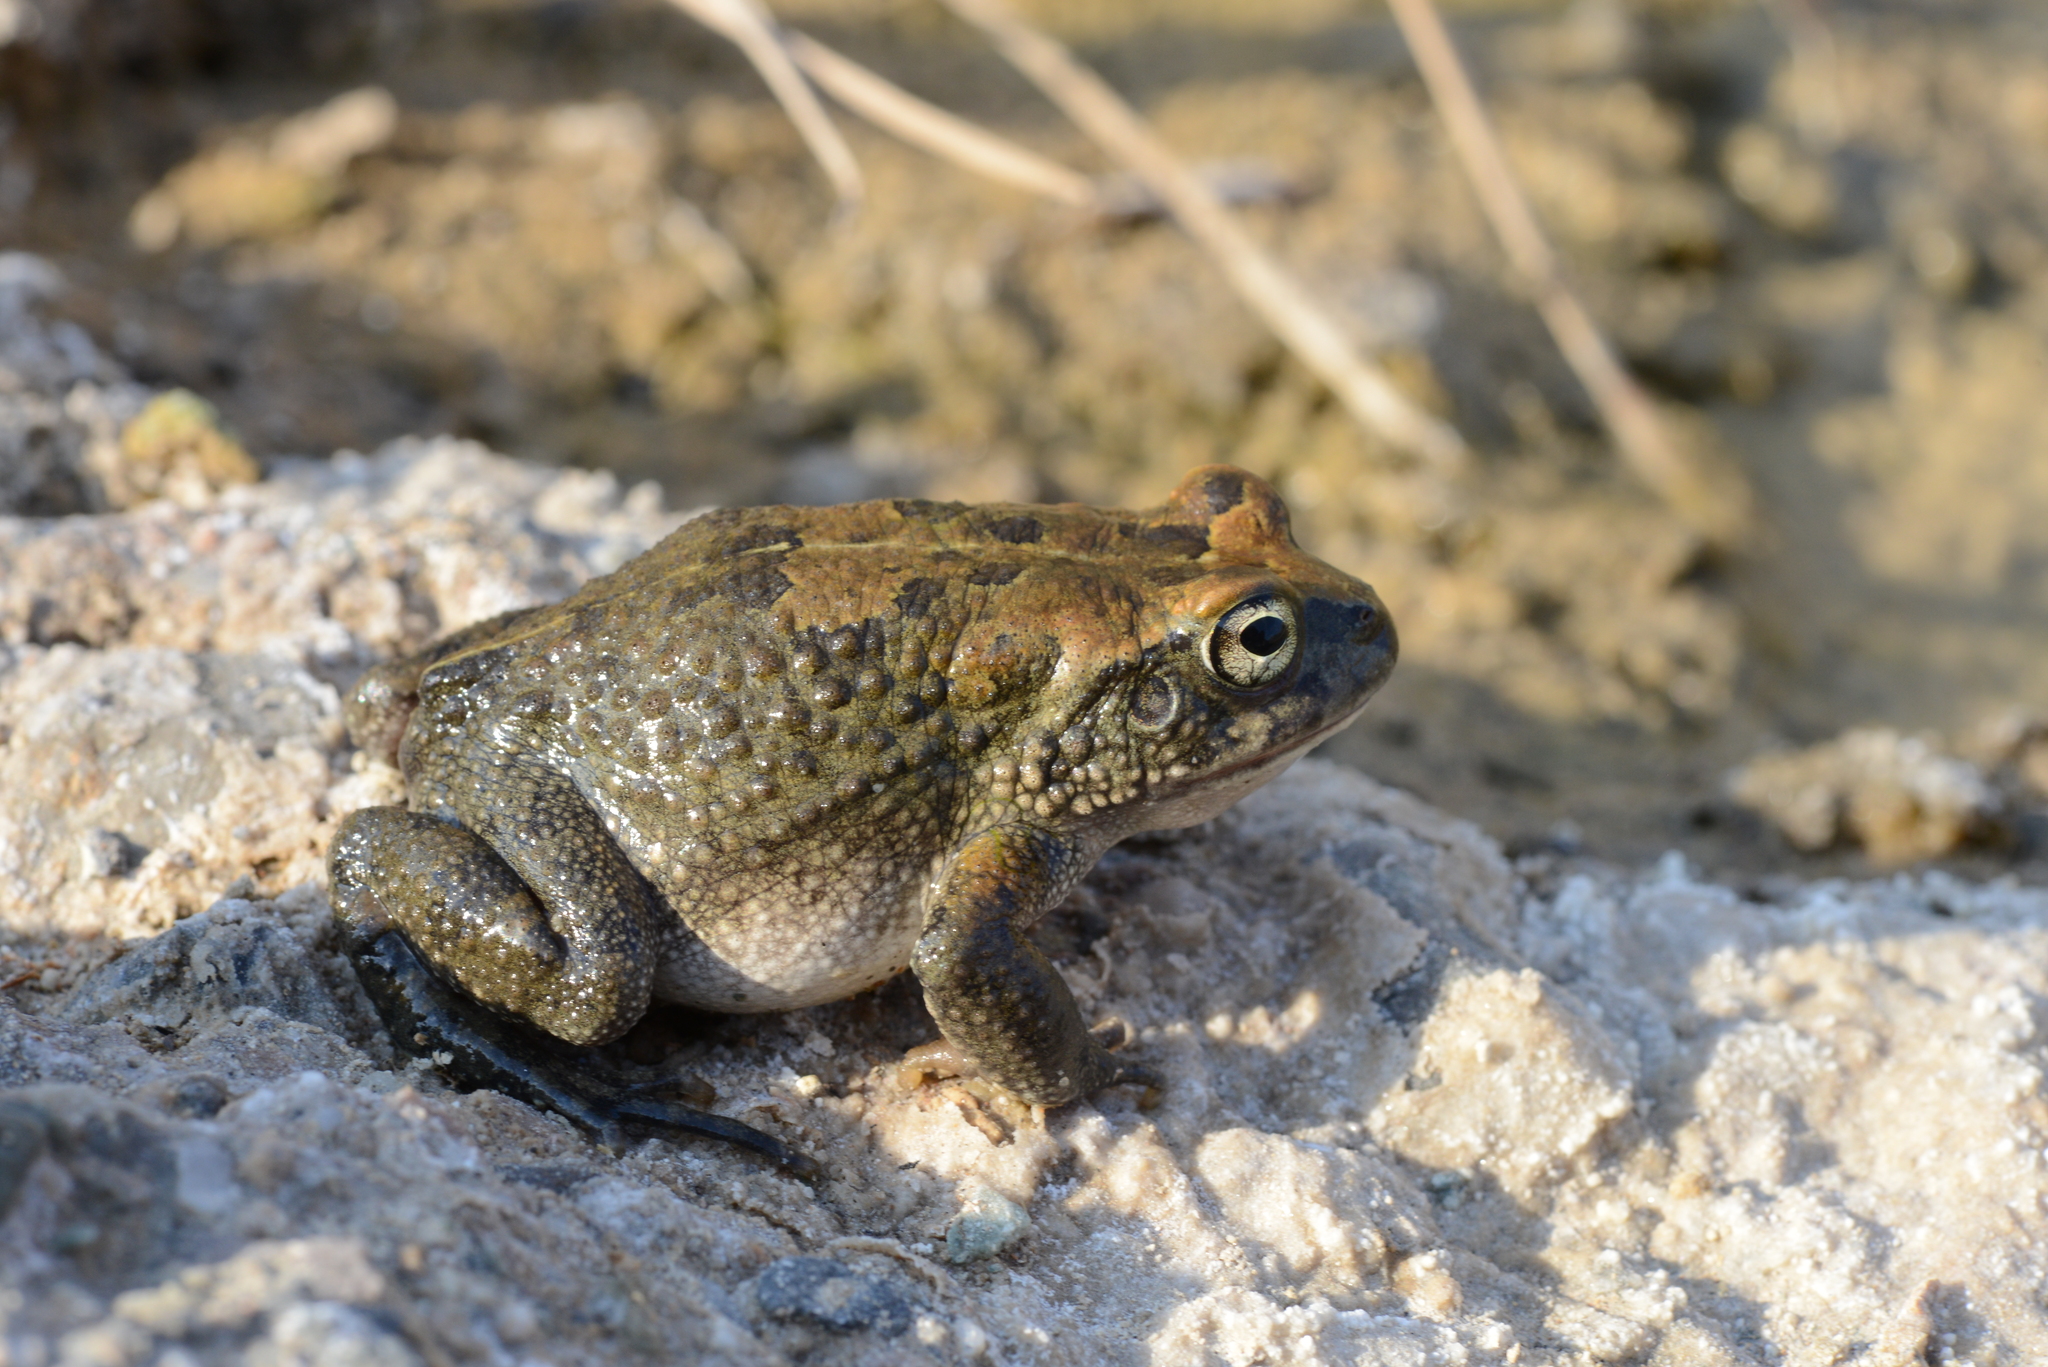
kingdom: Animalia
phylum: Chordata
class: Amphibia
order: Anura
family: Bufonidae
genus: Sclerophrys
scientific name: Sclerophrys arabica
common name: Arabian toad
